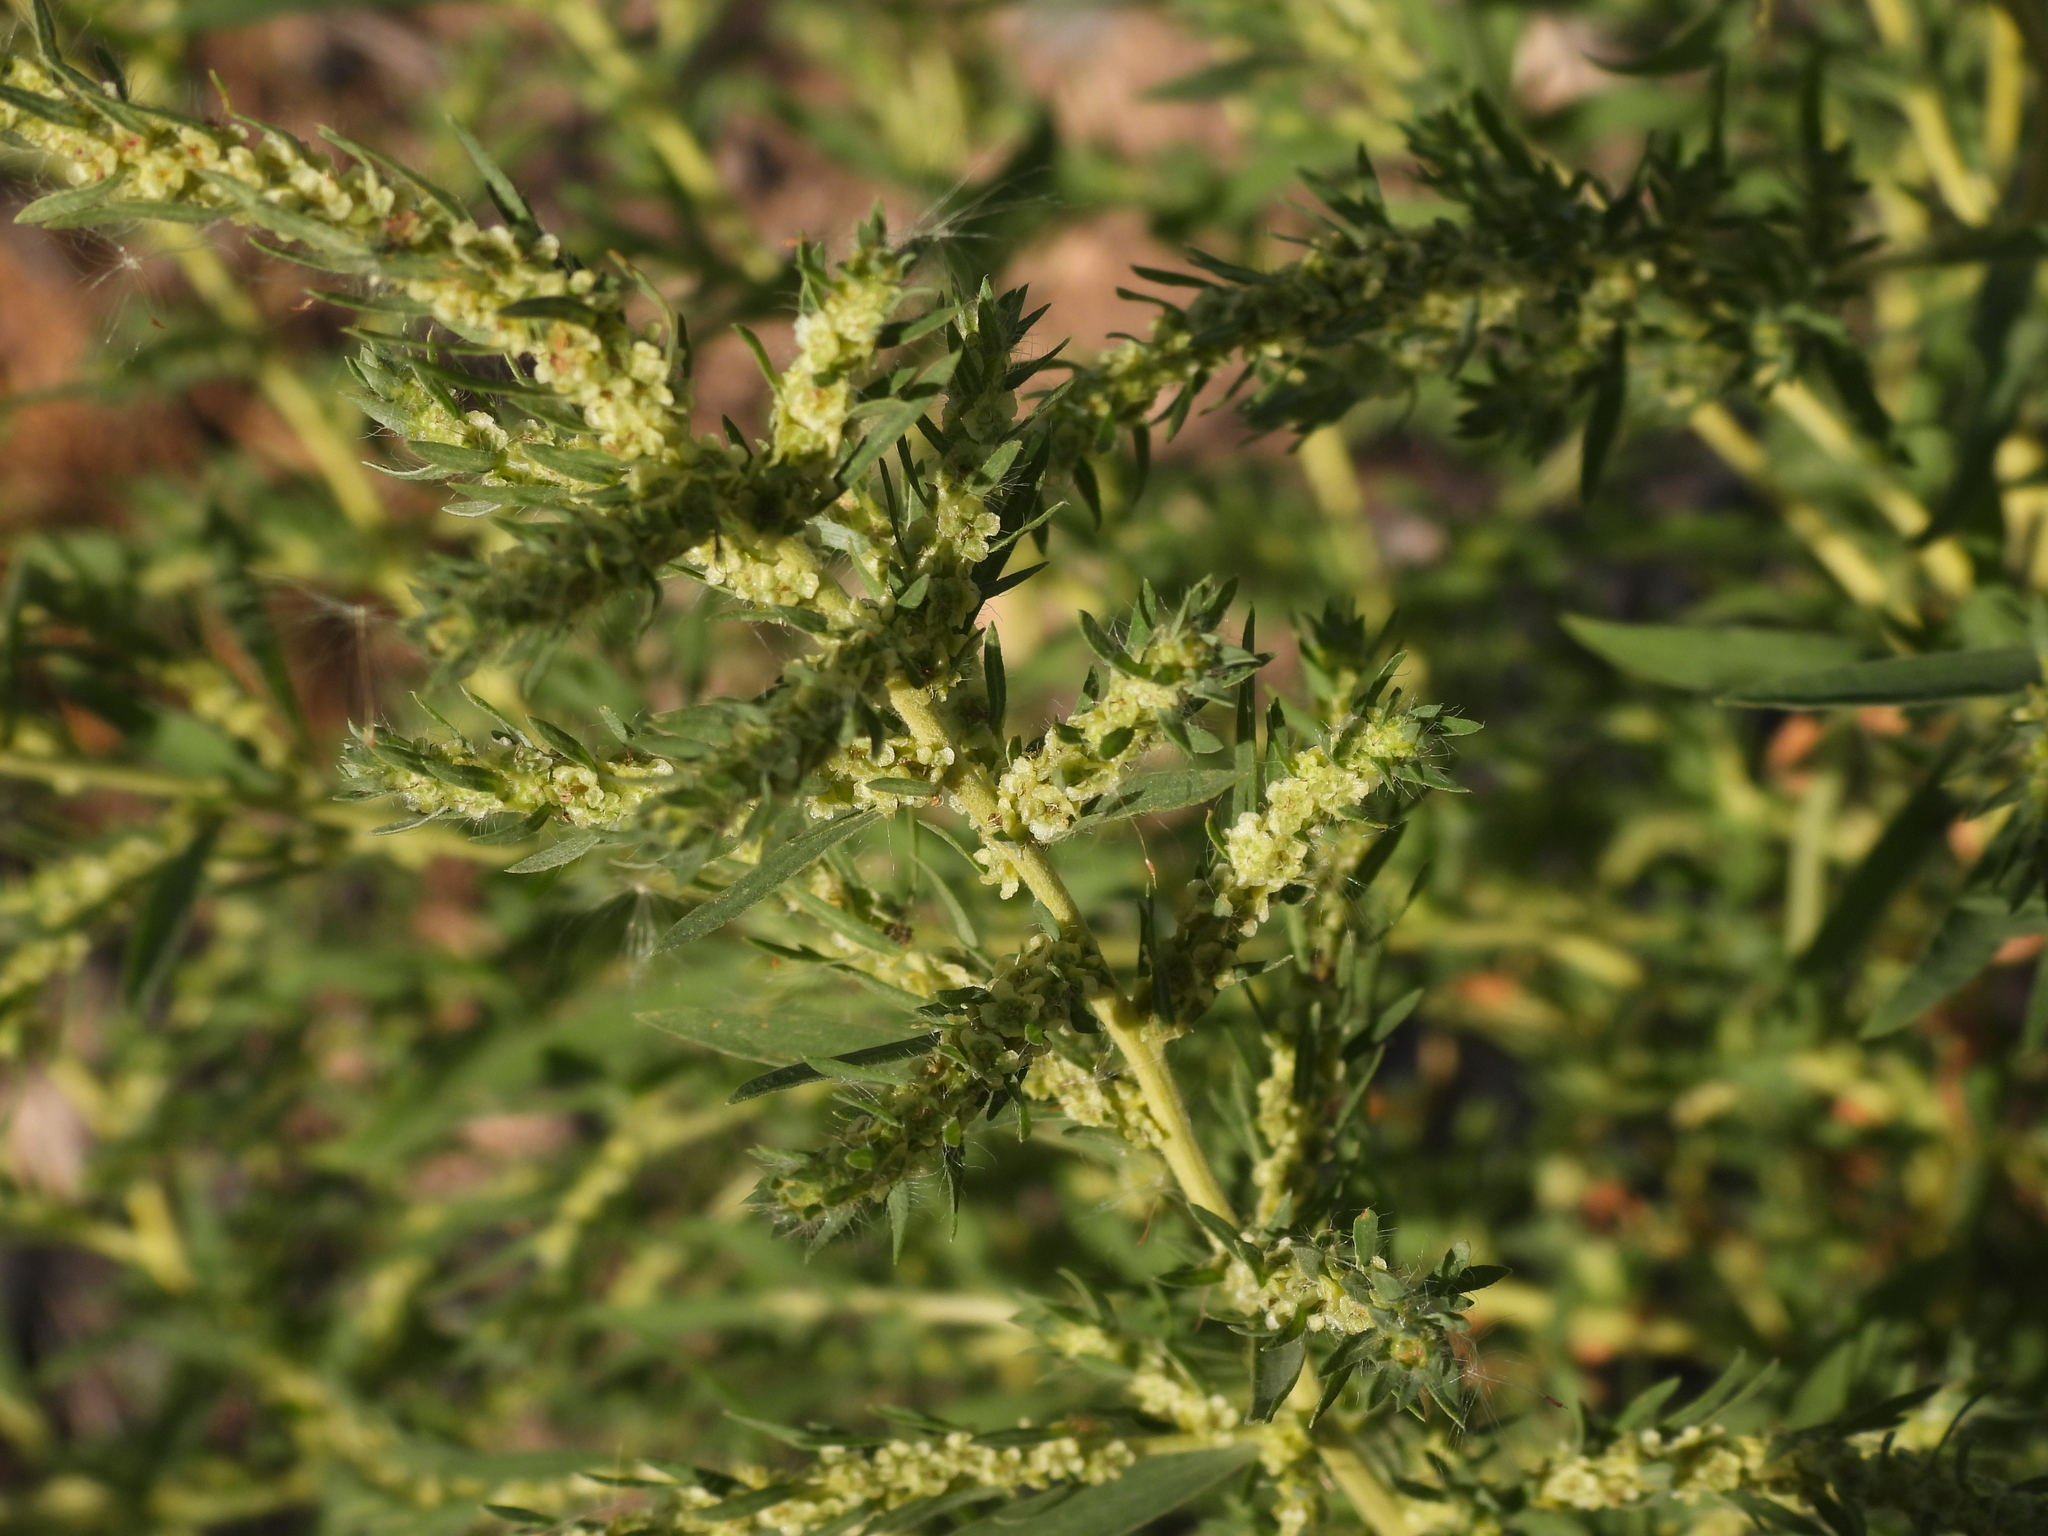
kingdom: Plantae
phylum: Tracheophyta
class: Magnoliopsida
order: Caryophyllales
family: Amaranthaceae
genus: Bassia
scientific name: Bassia scoparia
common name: Belvedere
